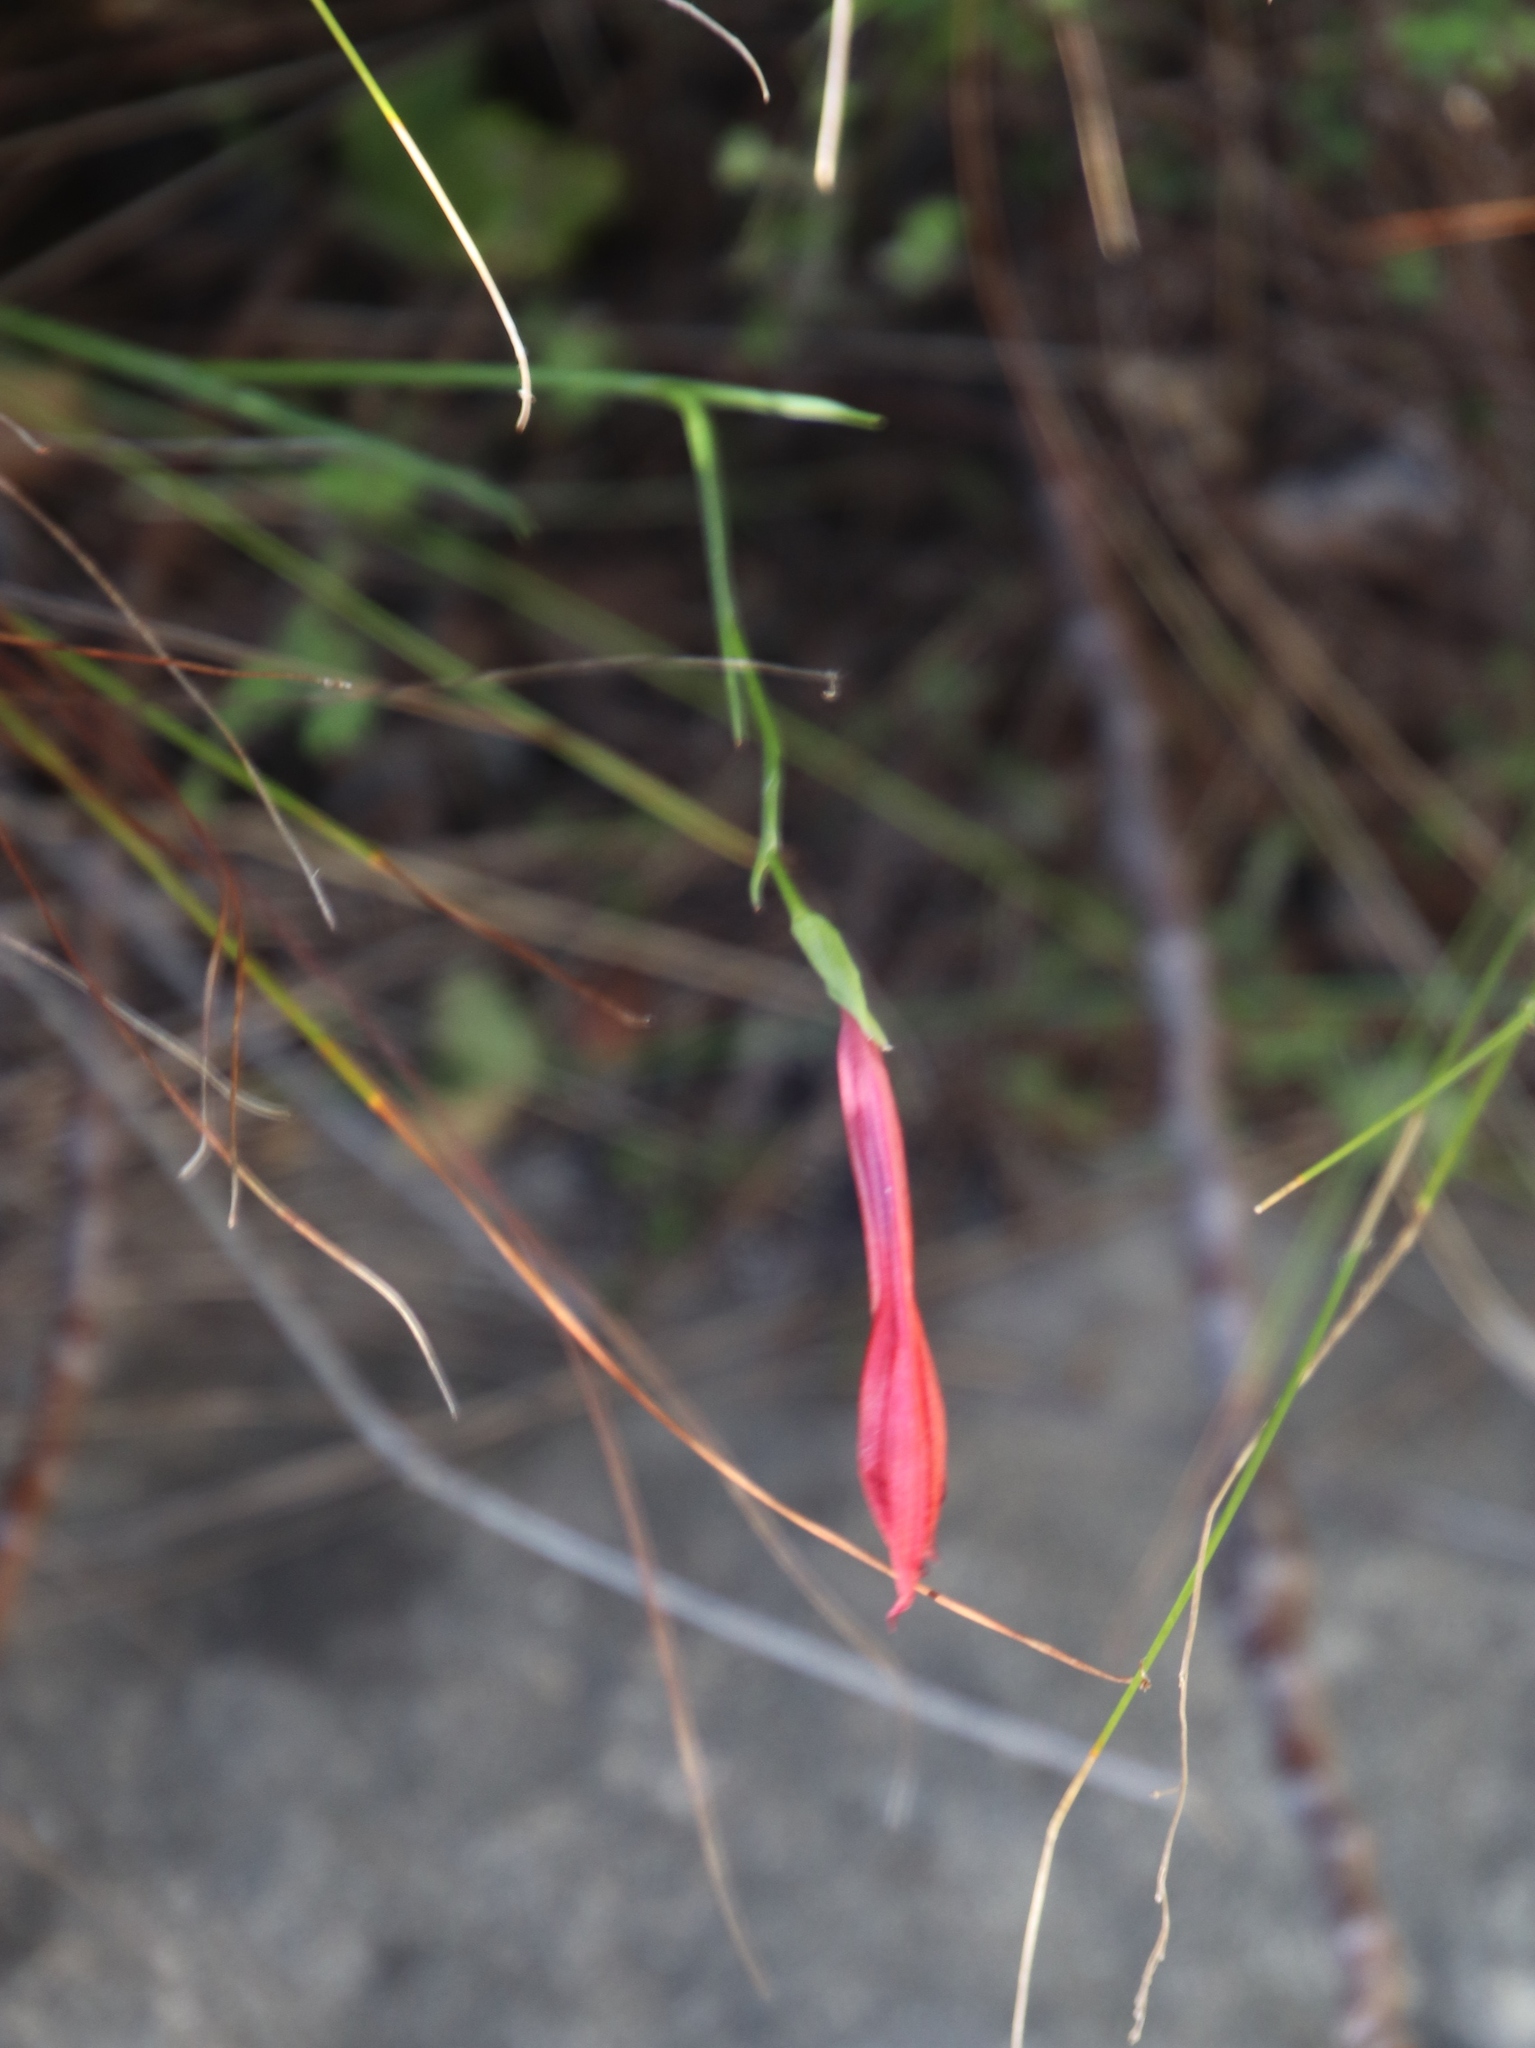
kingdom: Plantae
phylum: Tracheophyta
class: Liliopsida
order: Asparagales
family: Iridaceae
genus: Gladiolus
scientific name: Gladiolus priorii
